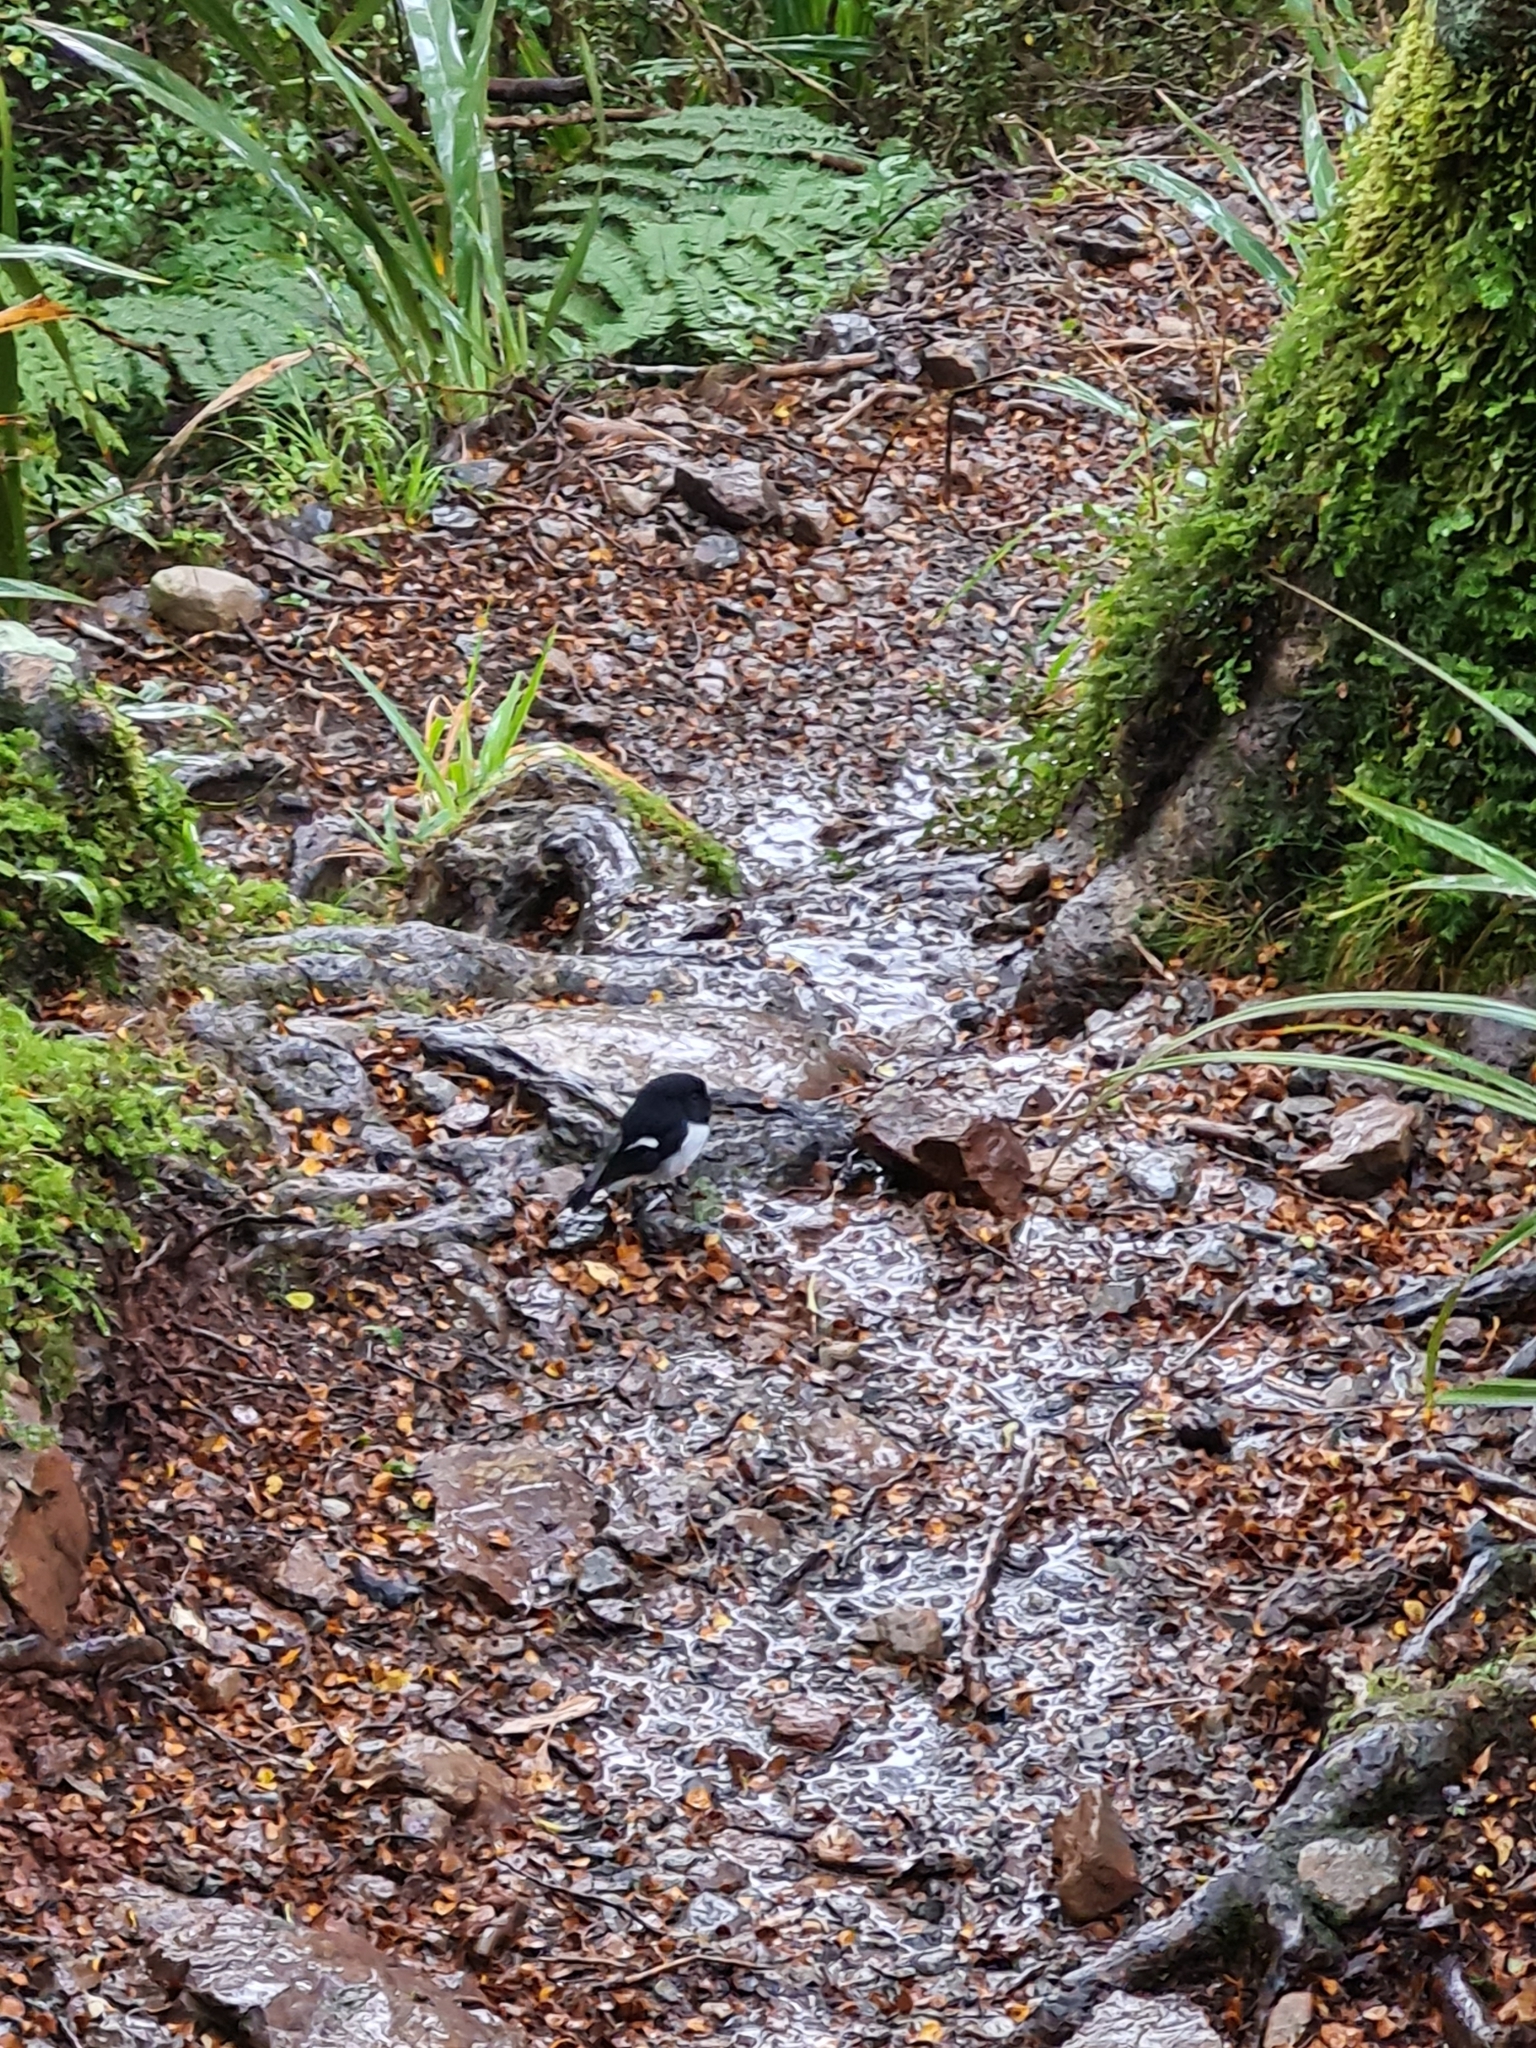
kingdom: Animalia
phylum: Chordata
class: Aves
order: Passeriformes
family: Petroicidae
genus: Petroica
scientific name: Petroica macrocephala
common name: Tomtit
